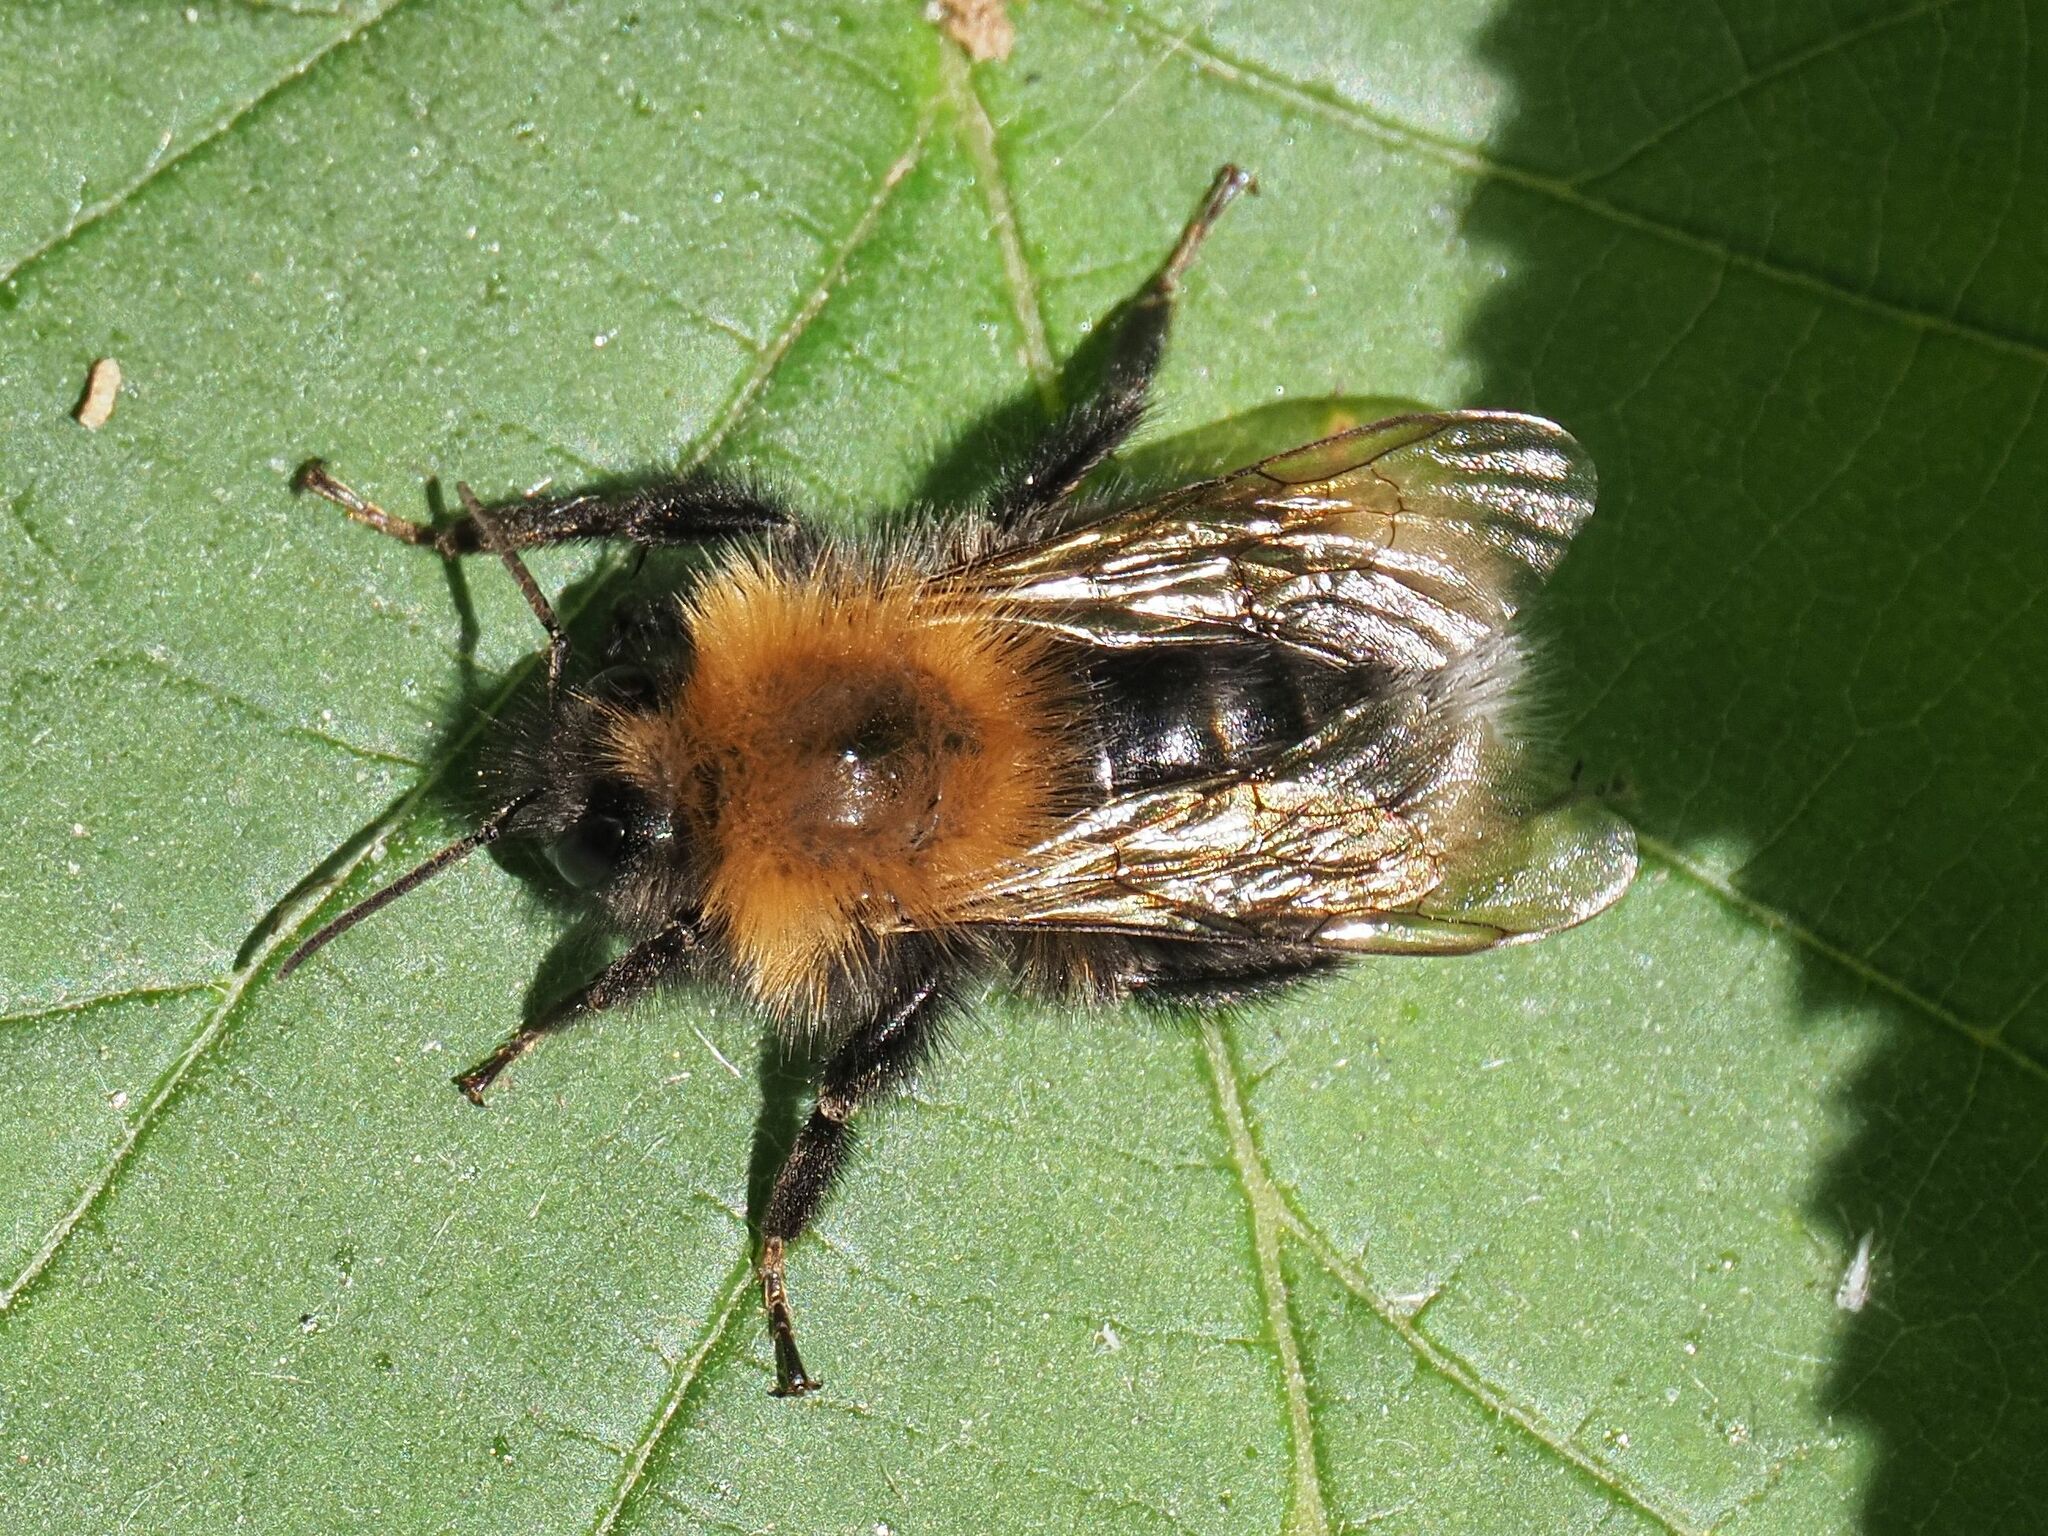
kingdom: Animalia
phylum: Arthropoda
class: Insecta
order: Hymenoptera
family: Apidae
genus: Bombus
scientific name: Bombus hypnorum
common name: New garden bumblebee
